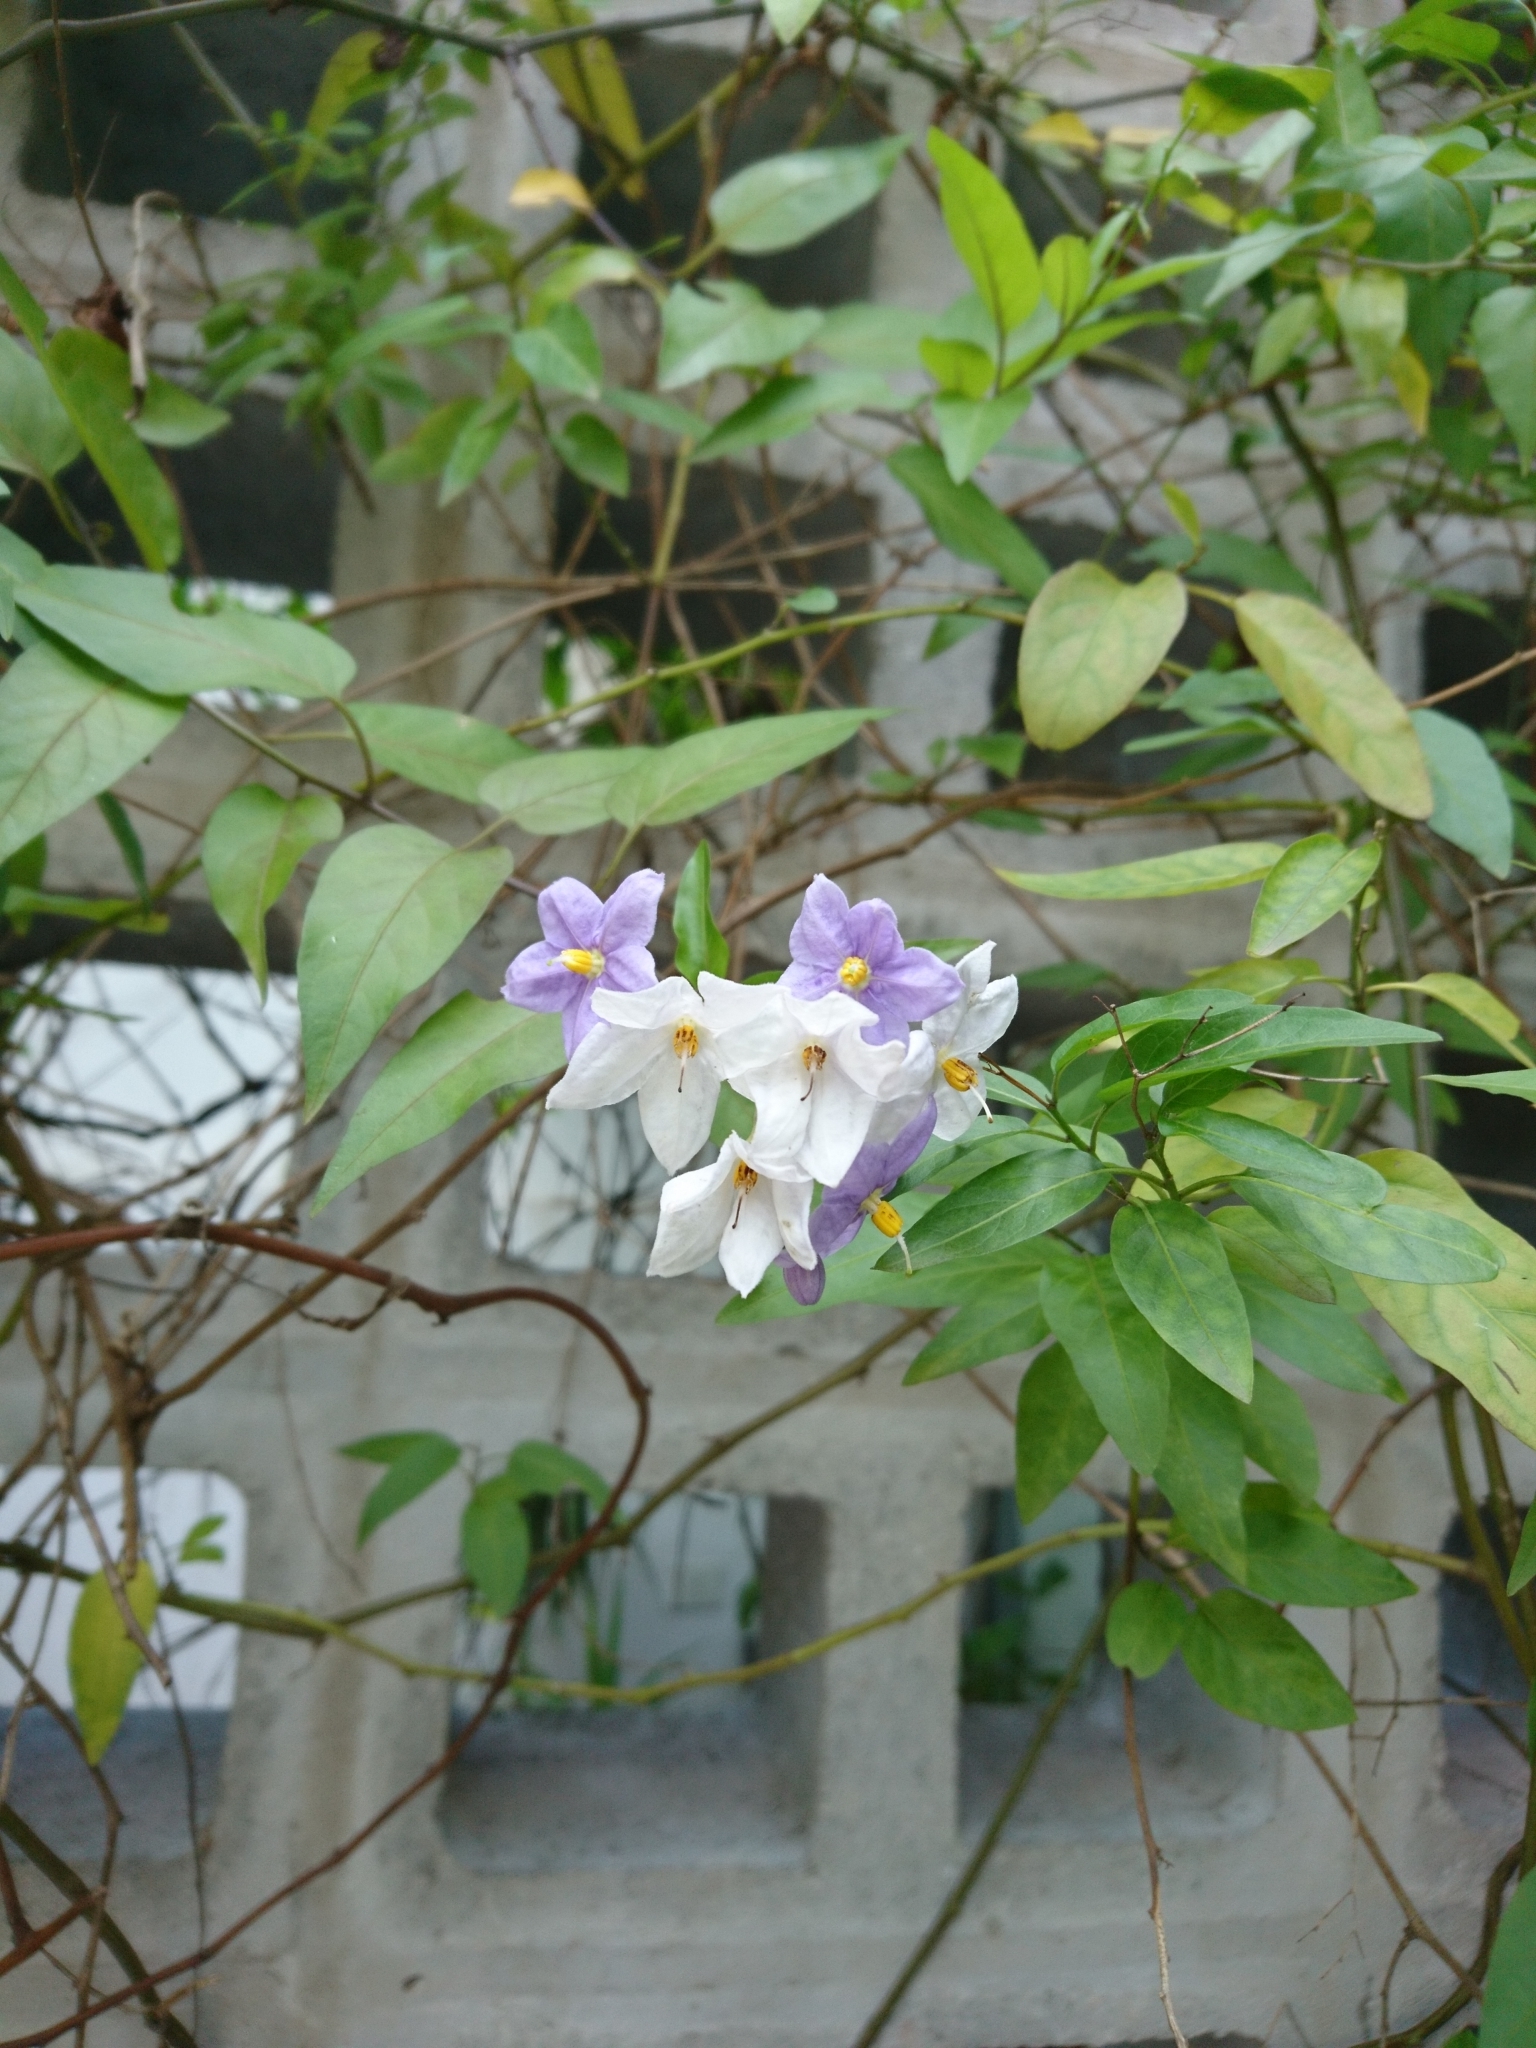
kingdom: Plantae
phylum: Tracheophyta
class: Magnoliopsida
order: Solanales
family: Solanaceae
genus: Solanum
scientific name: Solanum laxum
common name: Nightshade
